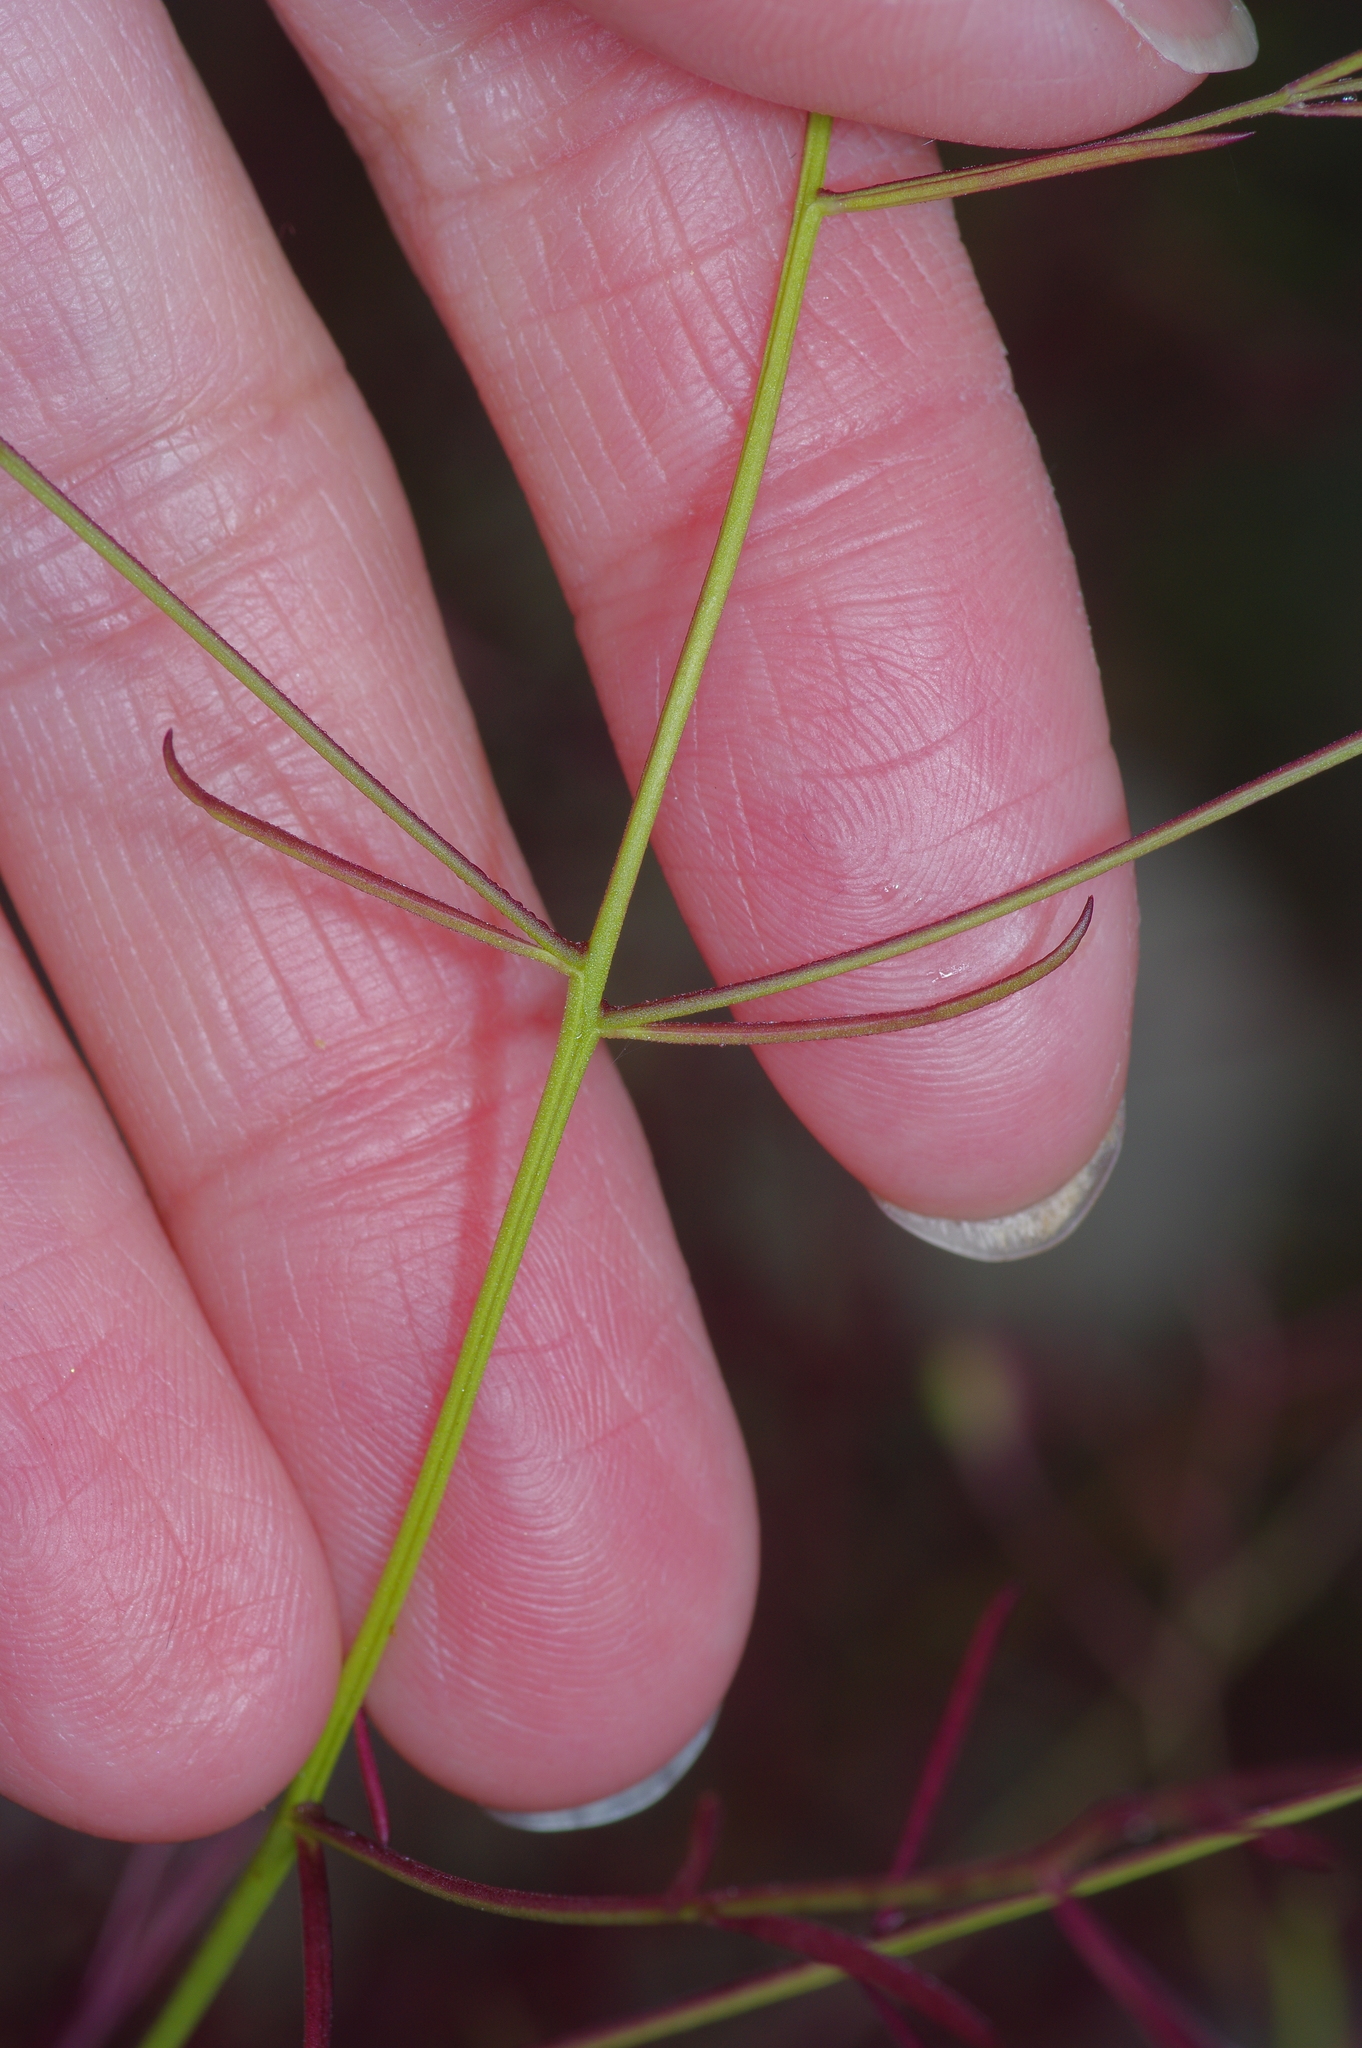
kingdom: Plantae
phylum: Tracheophyta
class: Magnoliopsida
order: Lamiales
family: Orobanchaceae
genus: Agalinis
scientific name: Agalinis edwardsiana
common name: Plateau-gerardia
